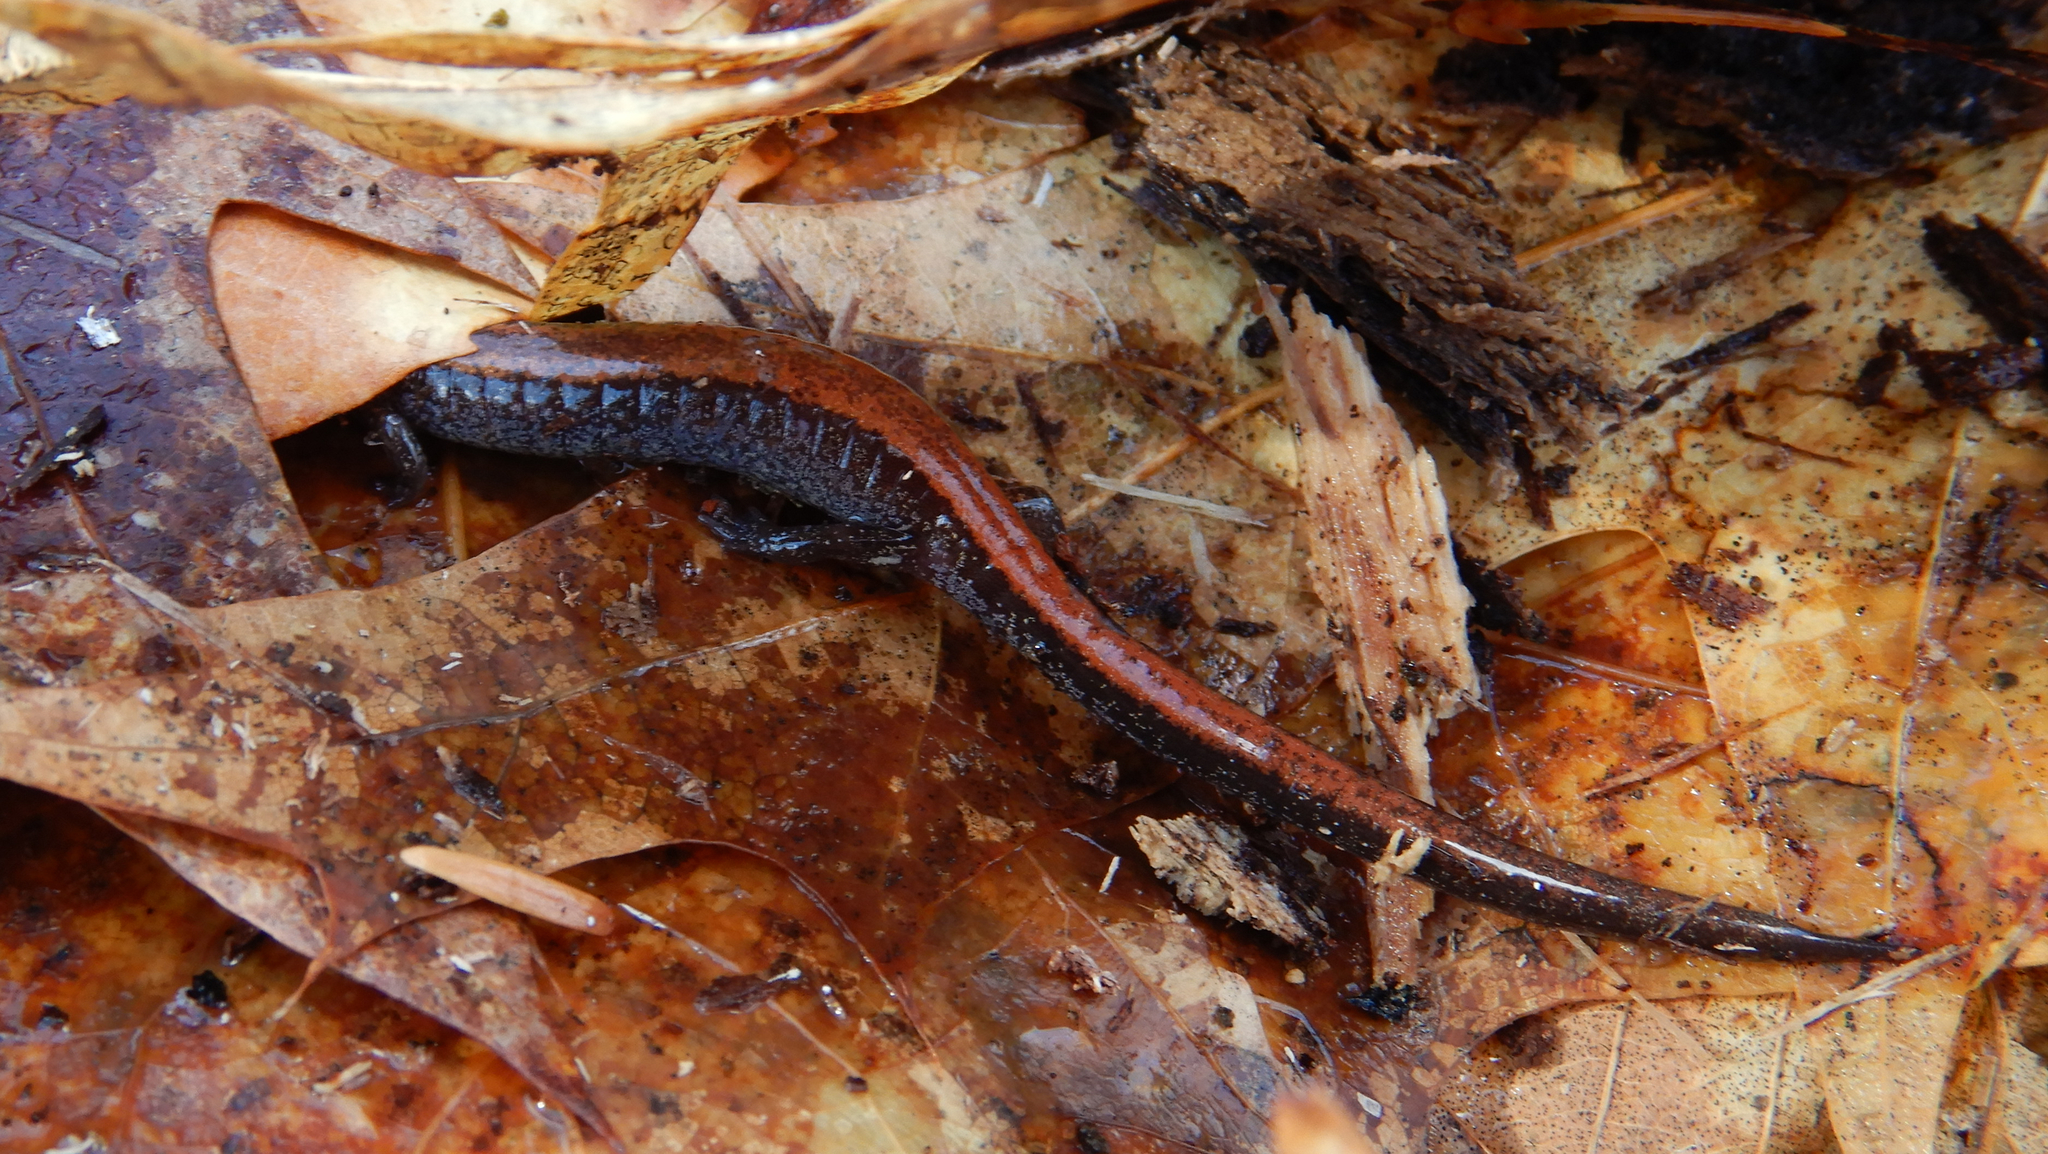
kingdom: Animalia
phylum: Chordata
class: Amphibia
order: Caudata
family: Plethodontidae
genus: Plethodon
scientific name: Plethodon cinereus
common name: Redback salamander
